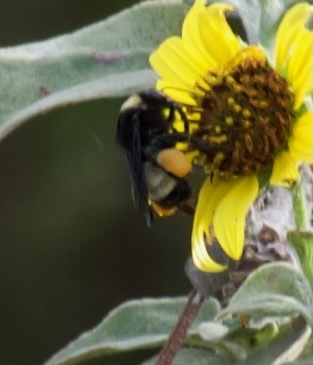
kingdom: Animalia
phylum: Arthropoda
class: Insecta
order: Hymenoptera
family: Apidae
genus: Bombus
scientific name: Bombus pensylvanicus
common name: Bumble bee
